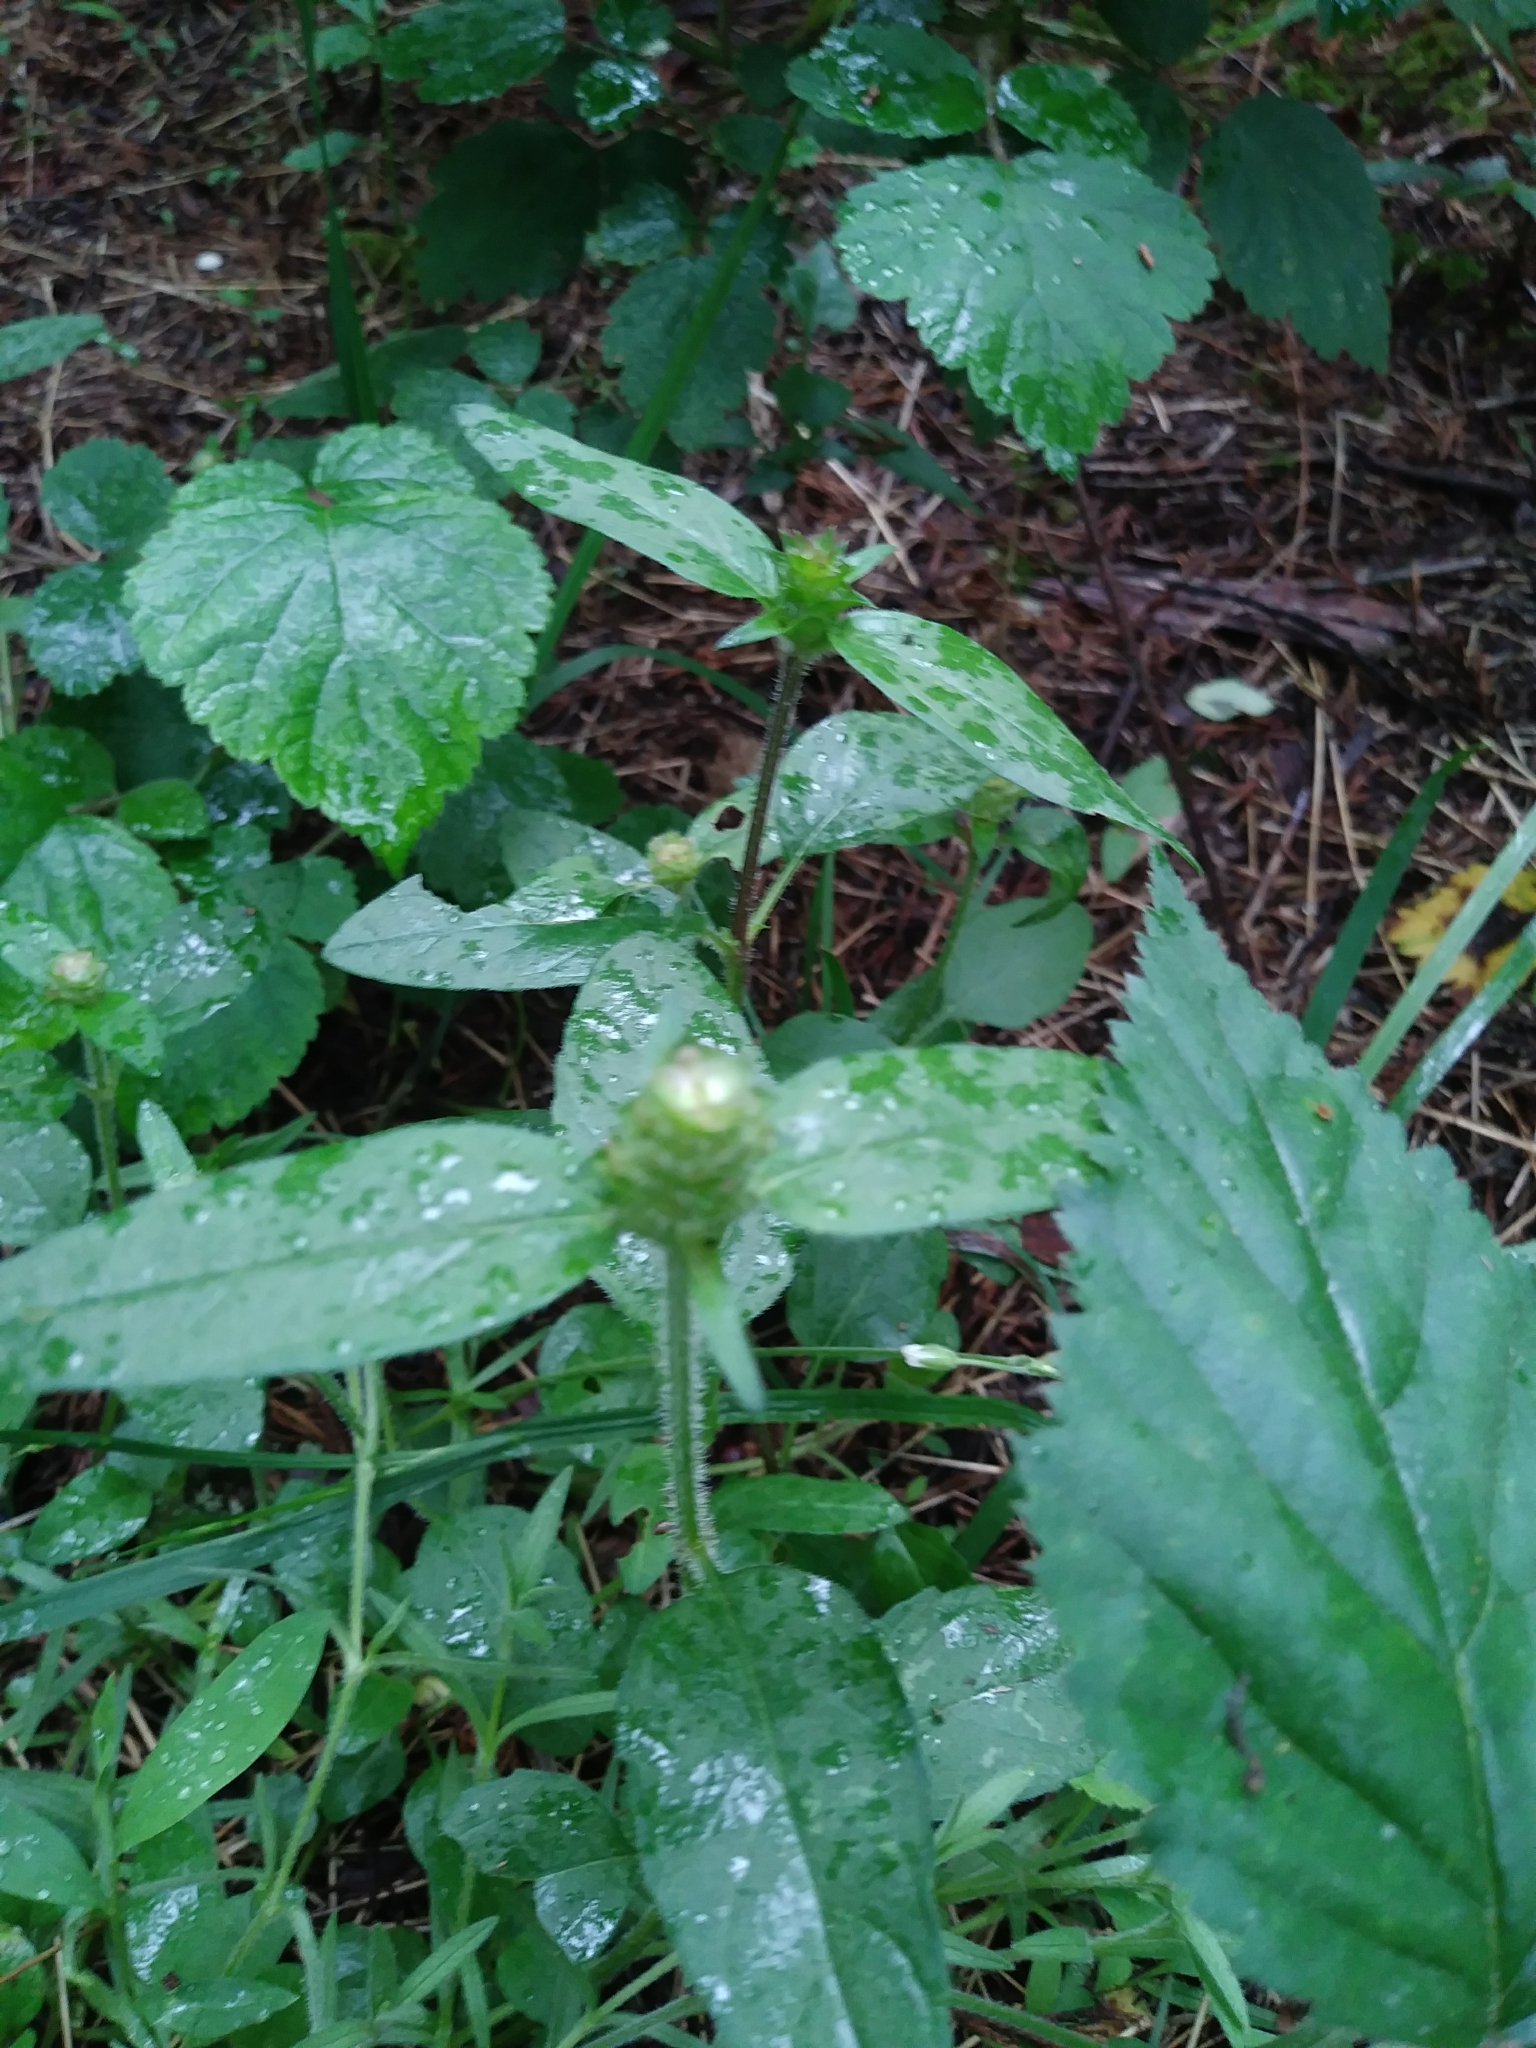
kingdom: Plantae
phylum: Tracheophyta
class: Magnoliopsida
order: Lamiales
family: Lamiaceae
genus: Prunella
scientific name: Prunella vulgaris
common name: Heal-all
